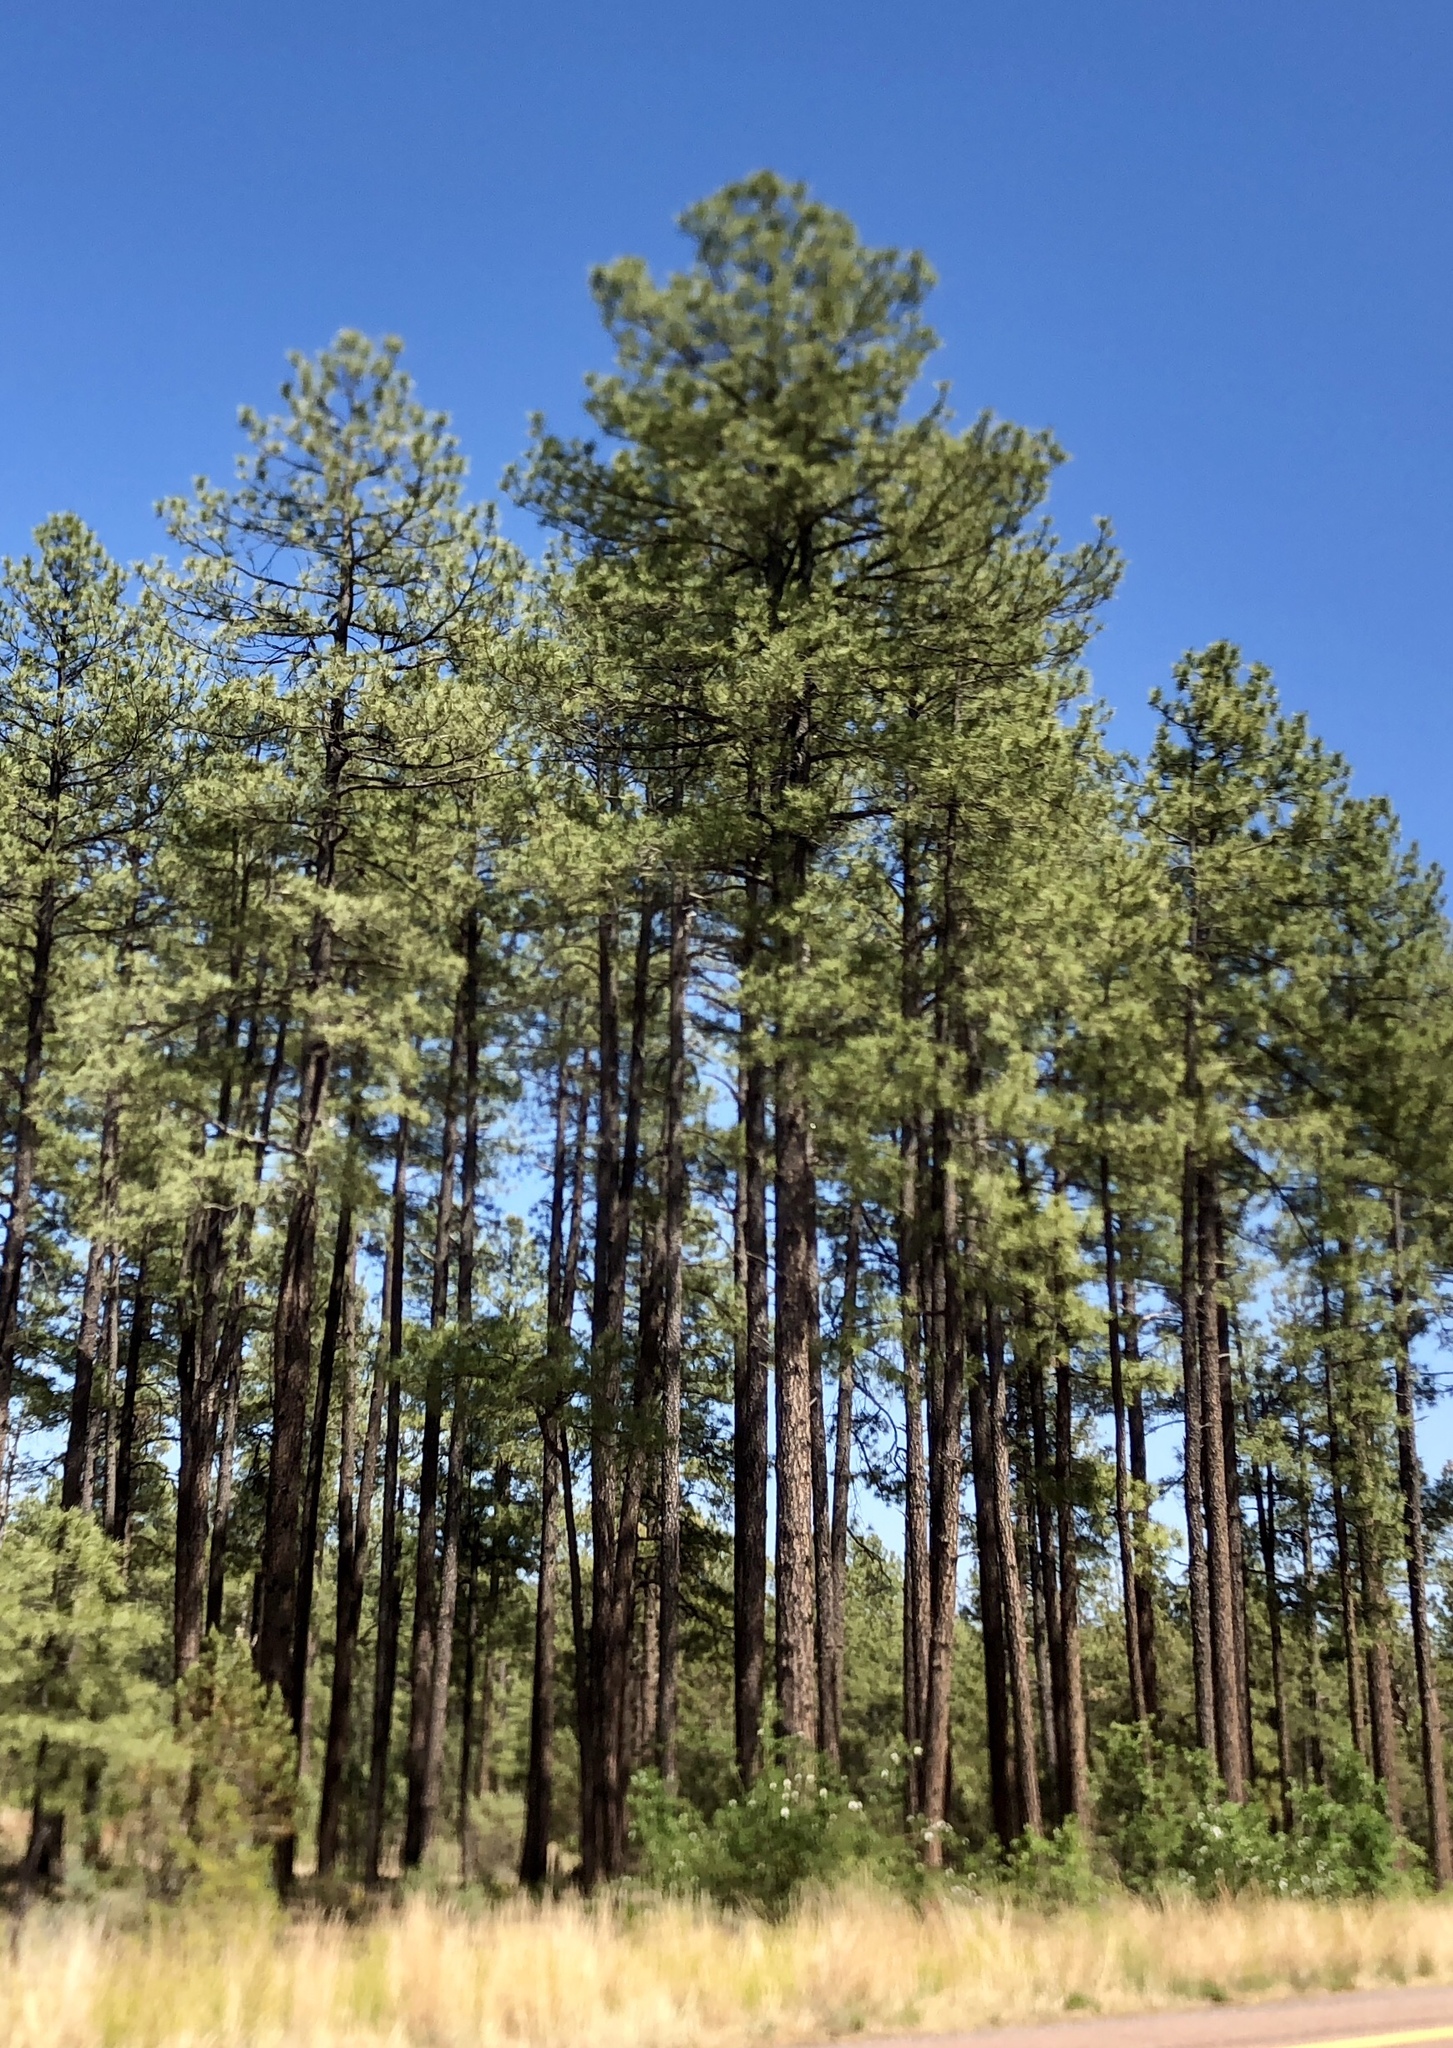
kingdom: Plantae
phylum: Tracheophyta
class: Pinopsida
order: Pinales
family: Pinaceae
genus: Pinus
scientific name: Pinus ponderosa
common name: Western yellow-pine
